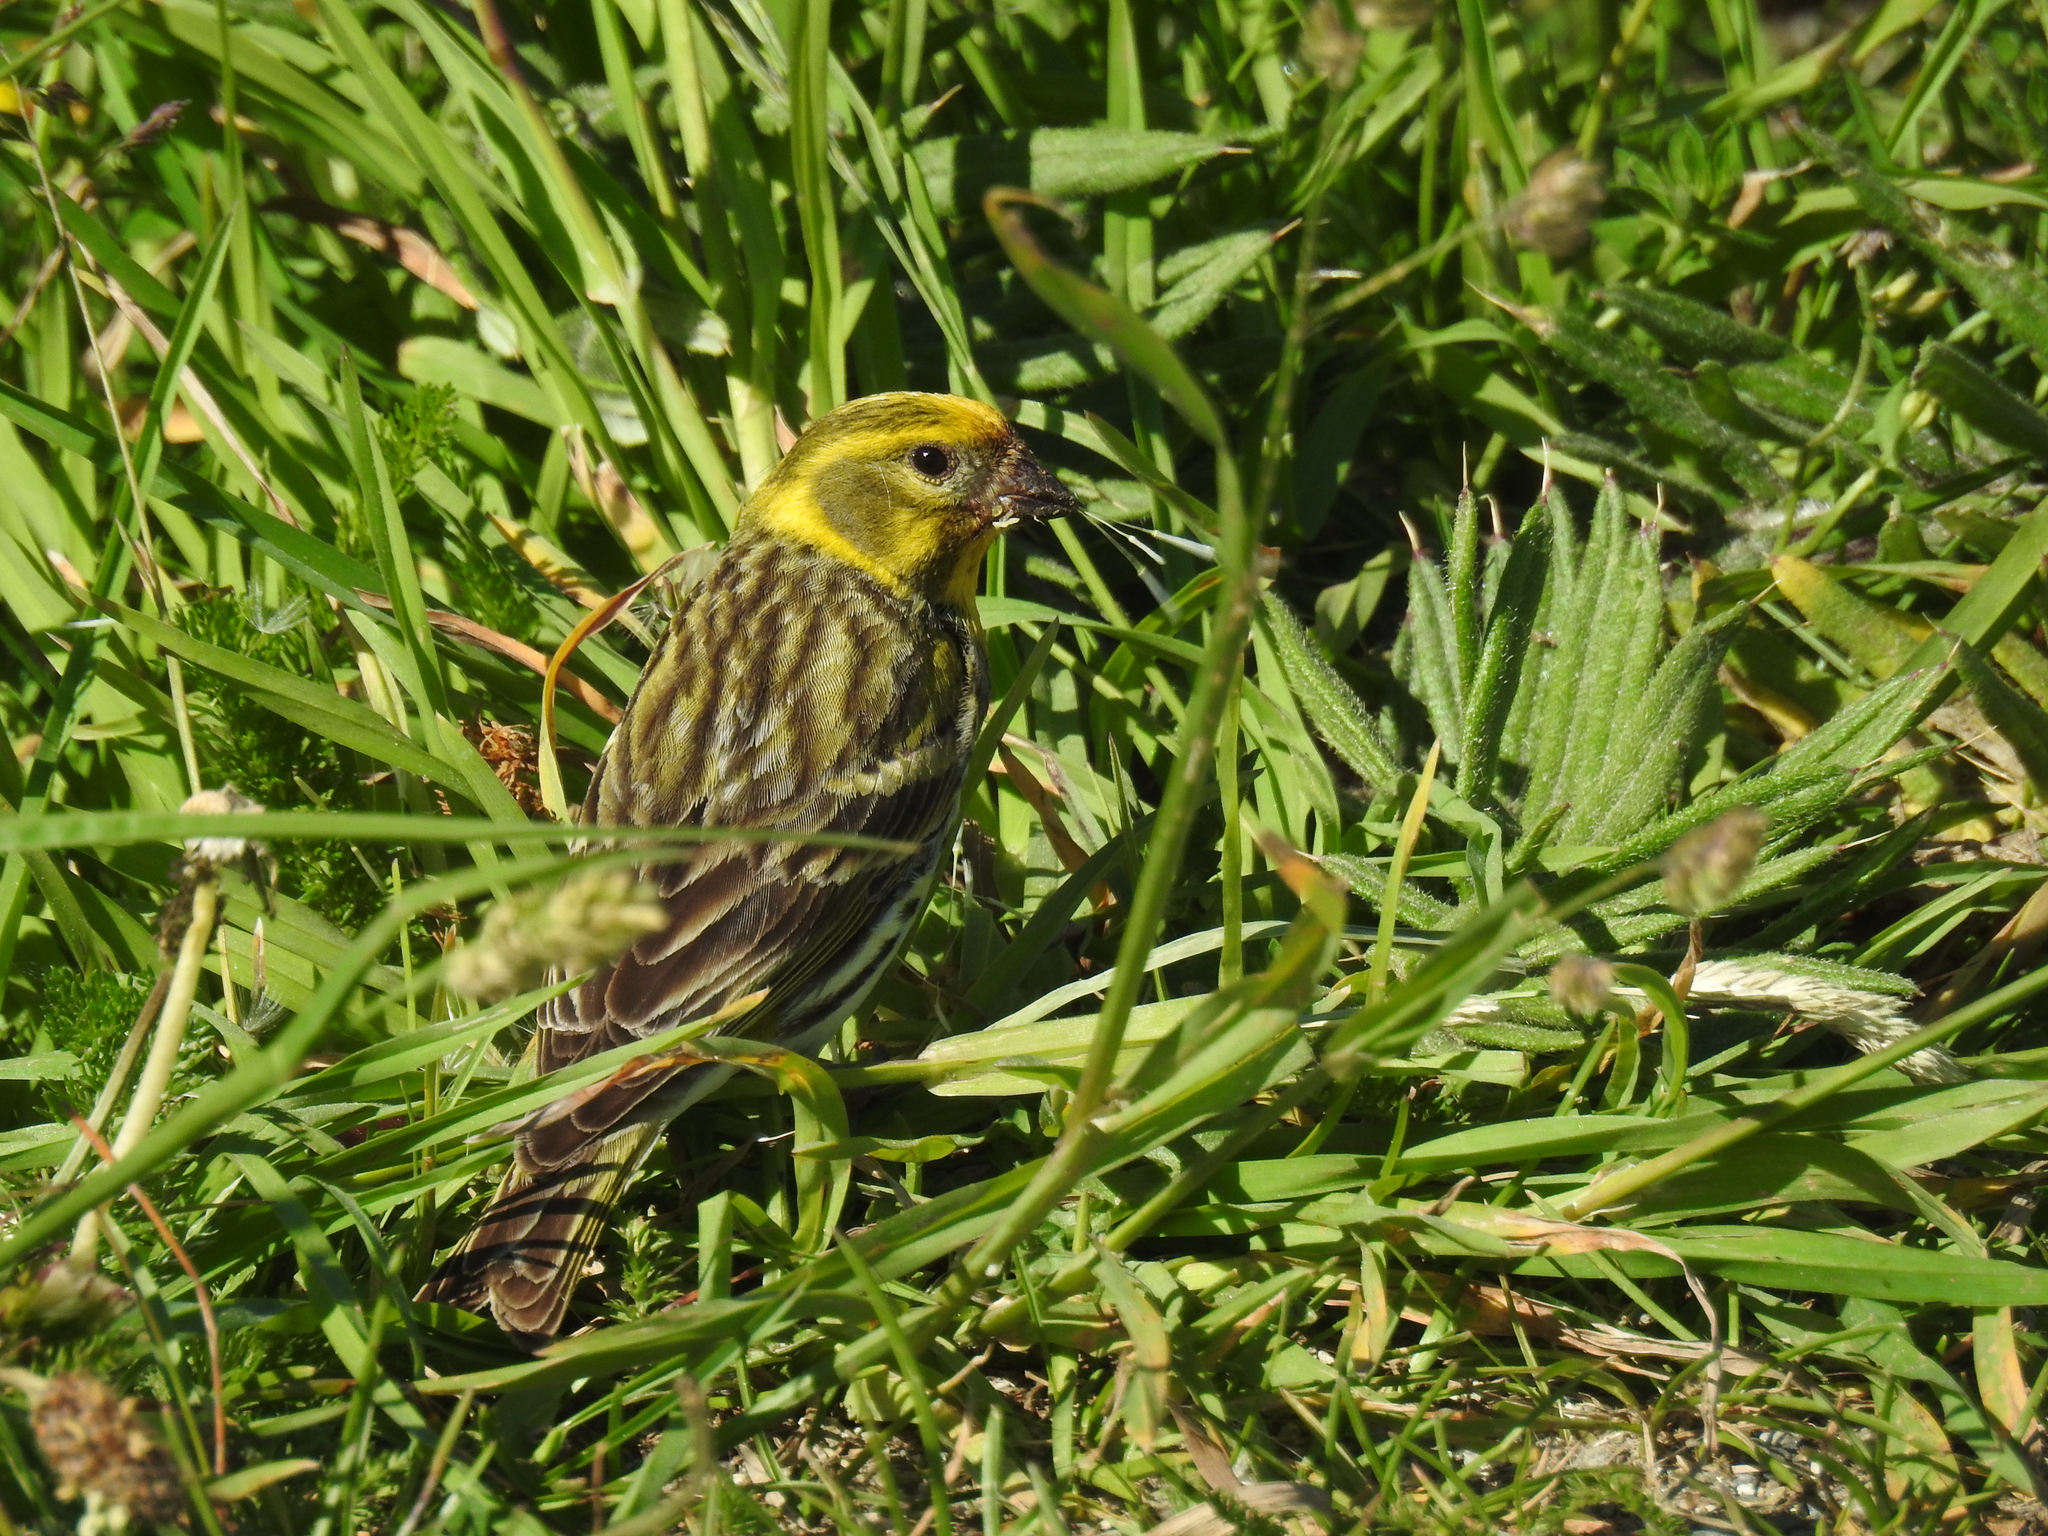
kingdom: Animalia
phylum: Chordata
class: Aves
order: Passeriformes
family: Fringillidae
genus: Serinus
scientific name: Serinus serinus
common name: European serin
